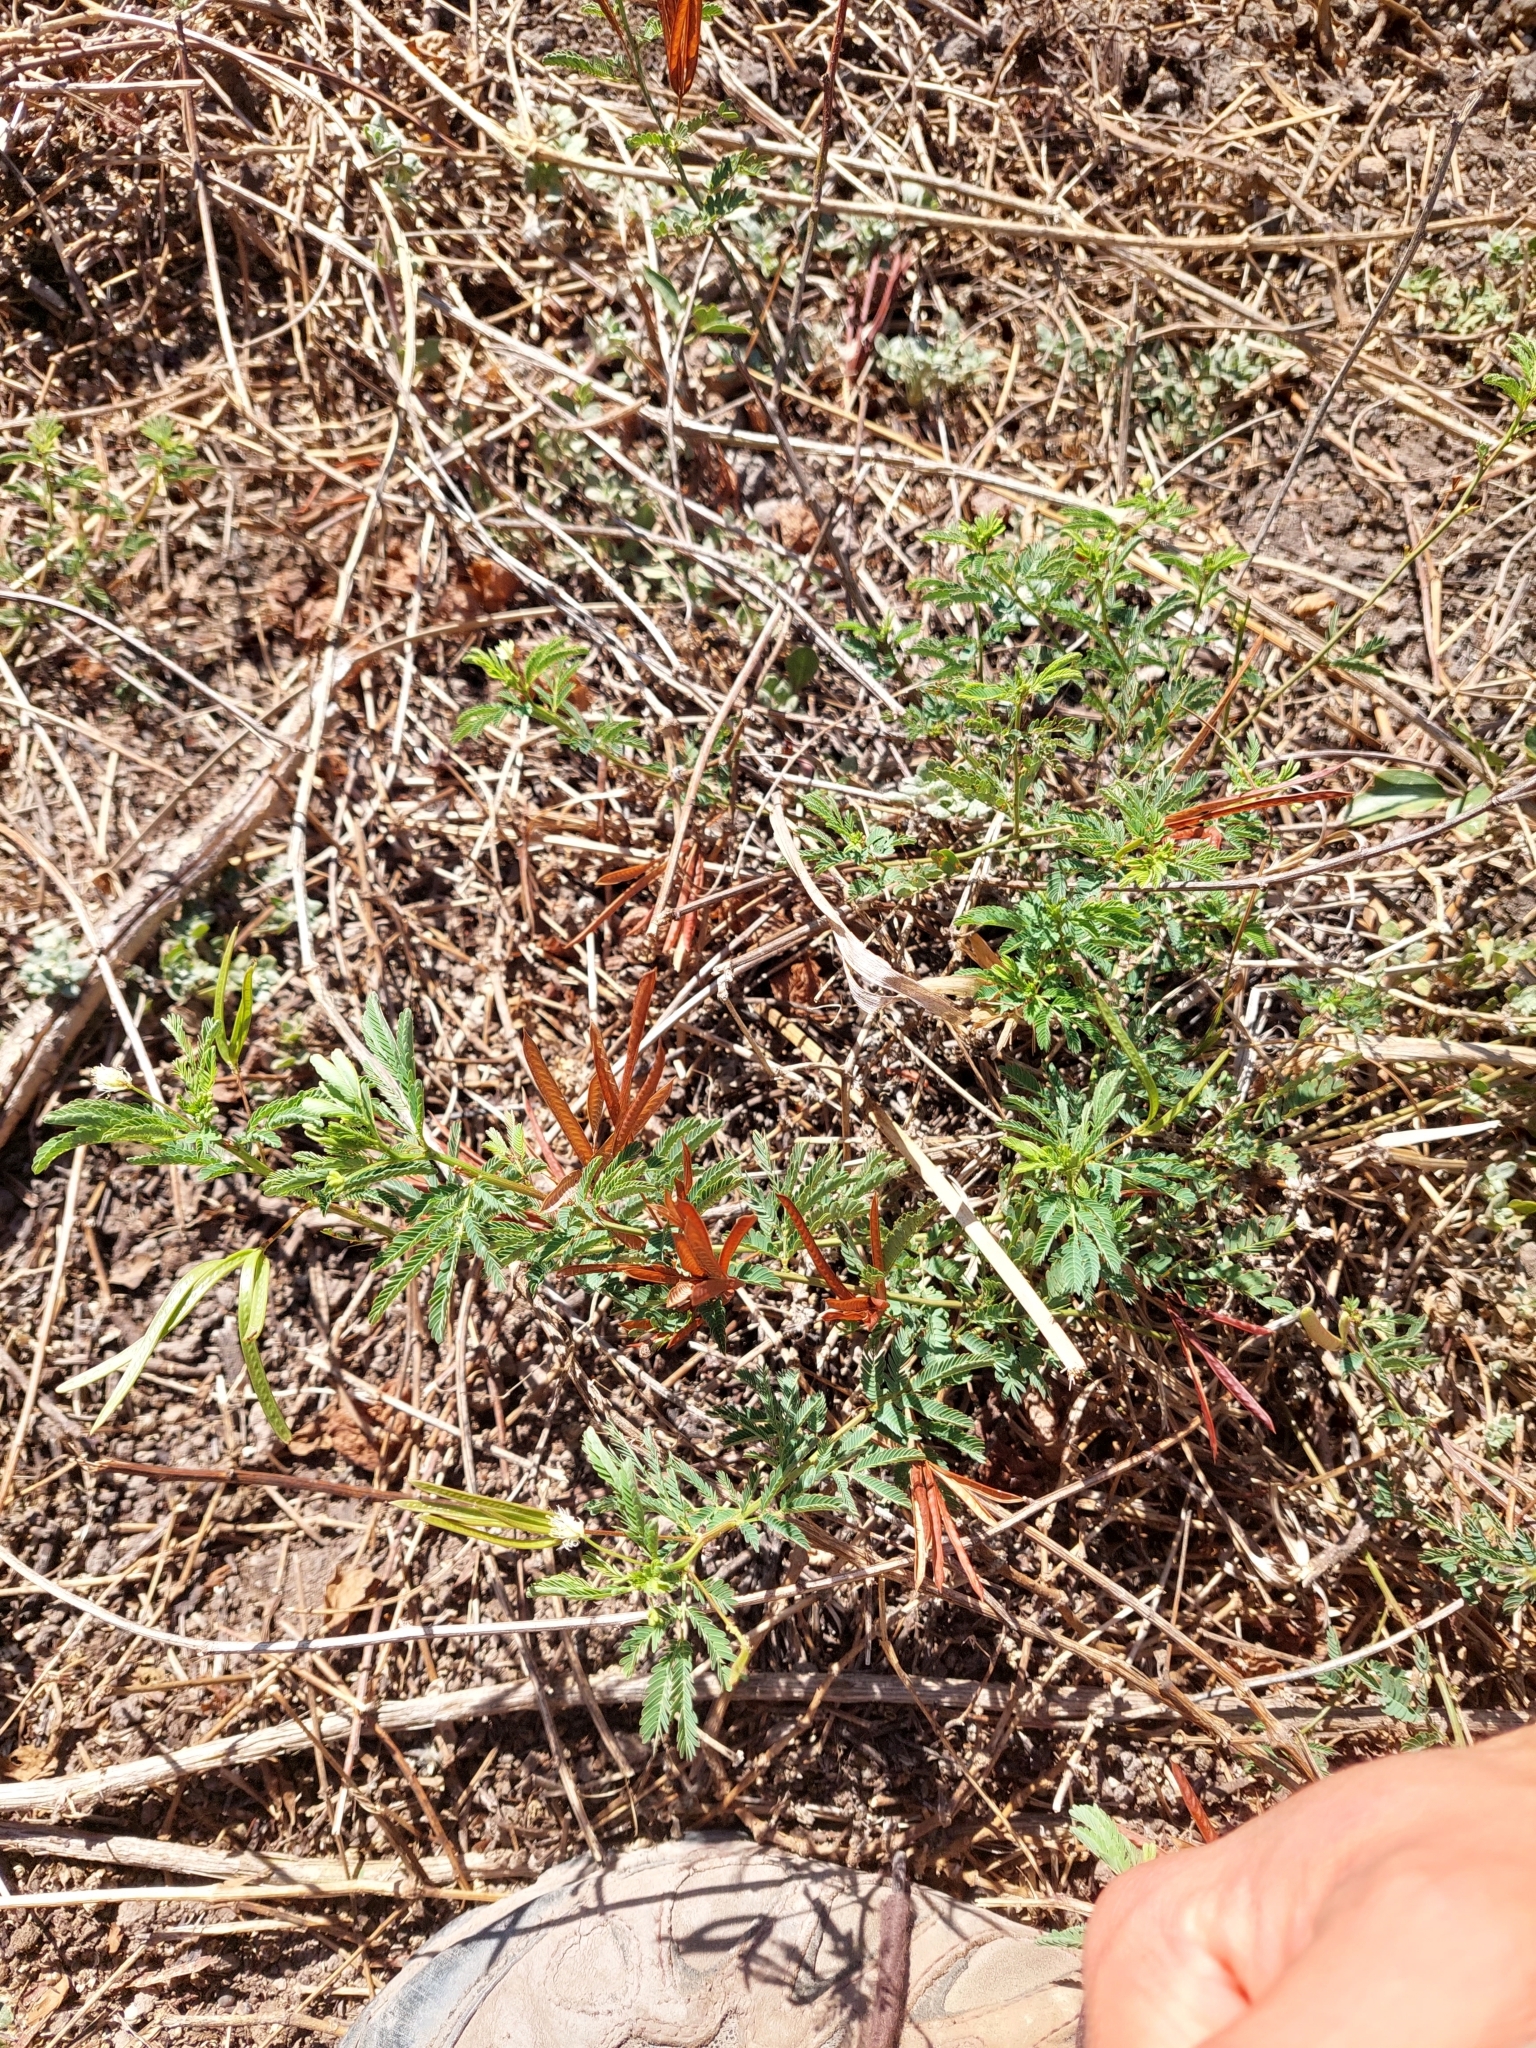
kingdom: Plantae
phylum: Tracheophyta
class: Magnoliopsida
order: Fabales
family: Fabaceae
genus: Desmanthus
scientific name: Desmanthus virgatus
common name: Wild tantan
